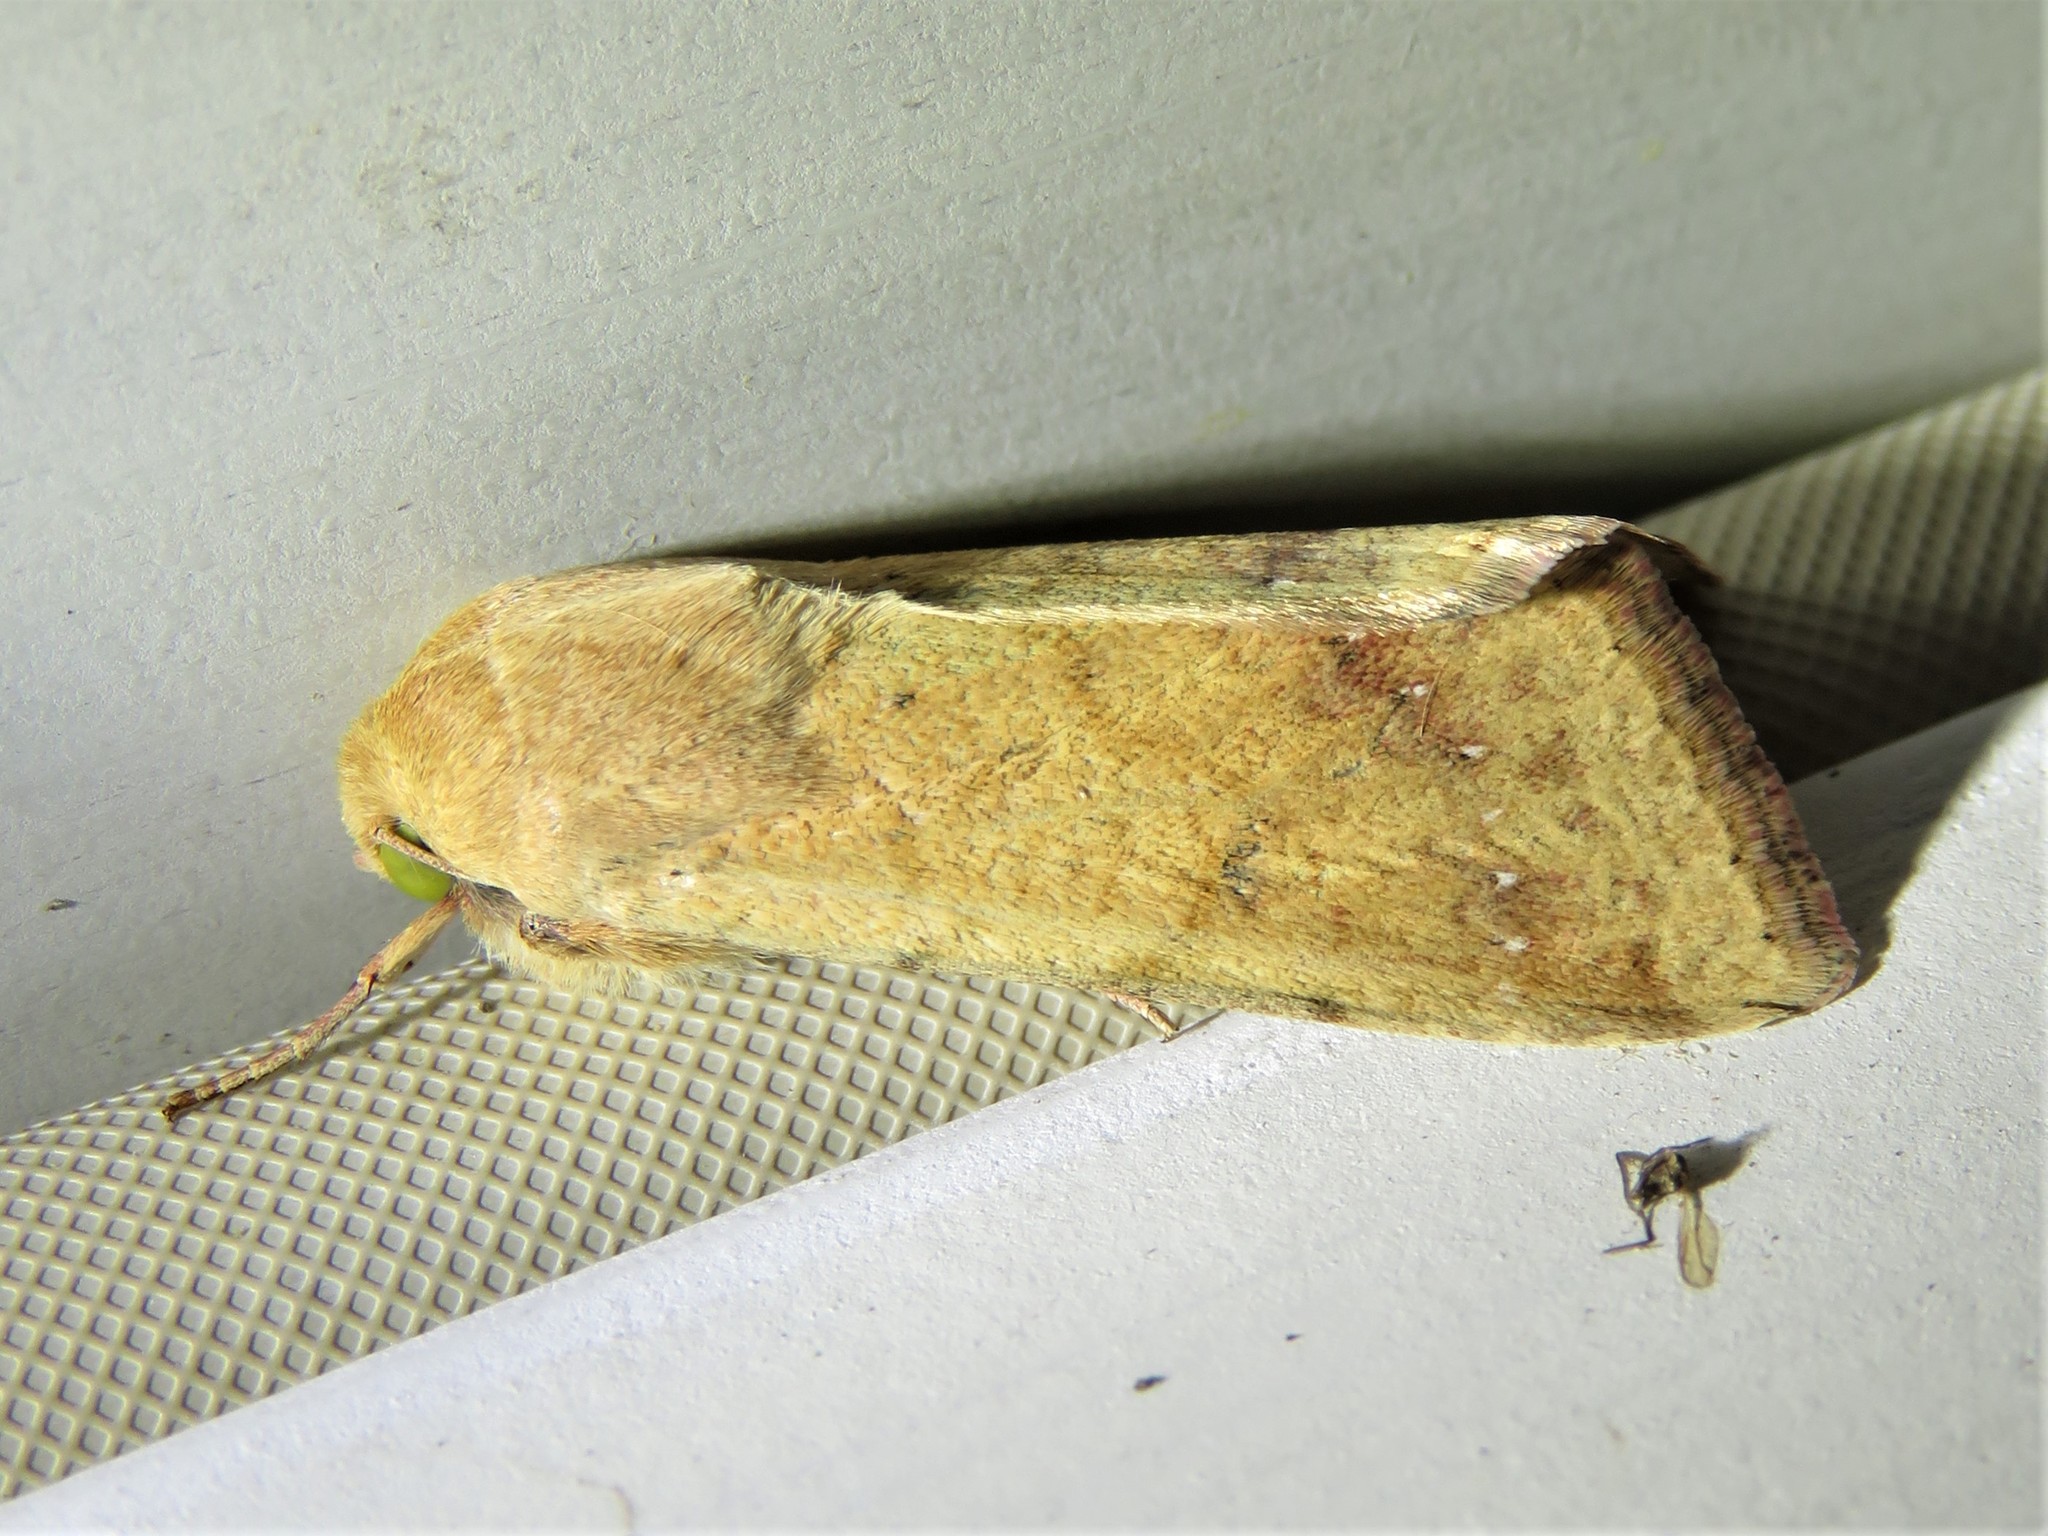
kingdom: Animalia
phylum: Arthropoda
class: Insecta
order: Lepidoptera
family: Noctuidae
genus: Helicoverpa
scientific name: Helicoverpa zea
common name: Bollworm
